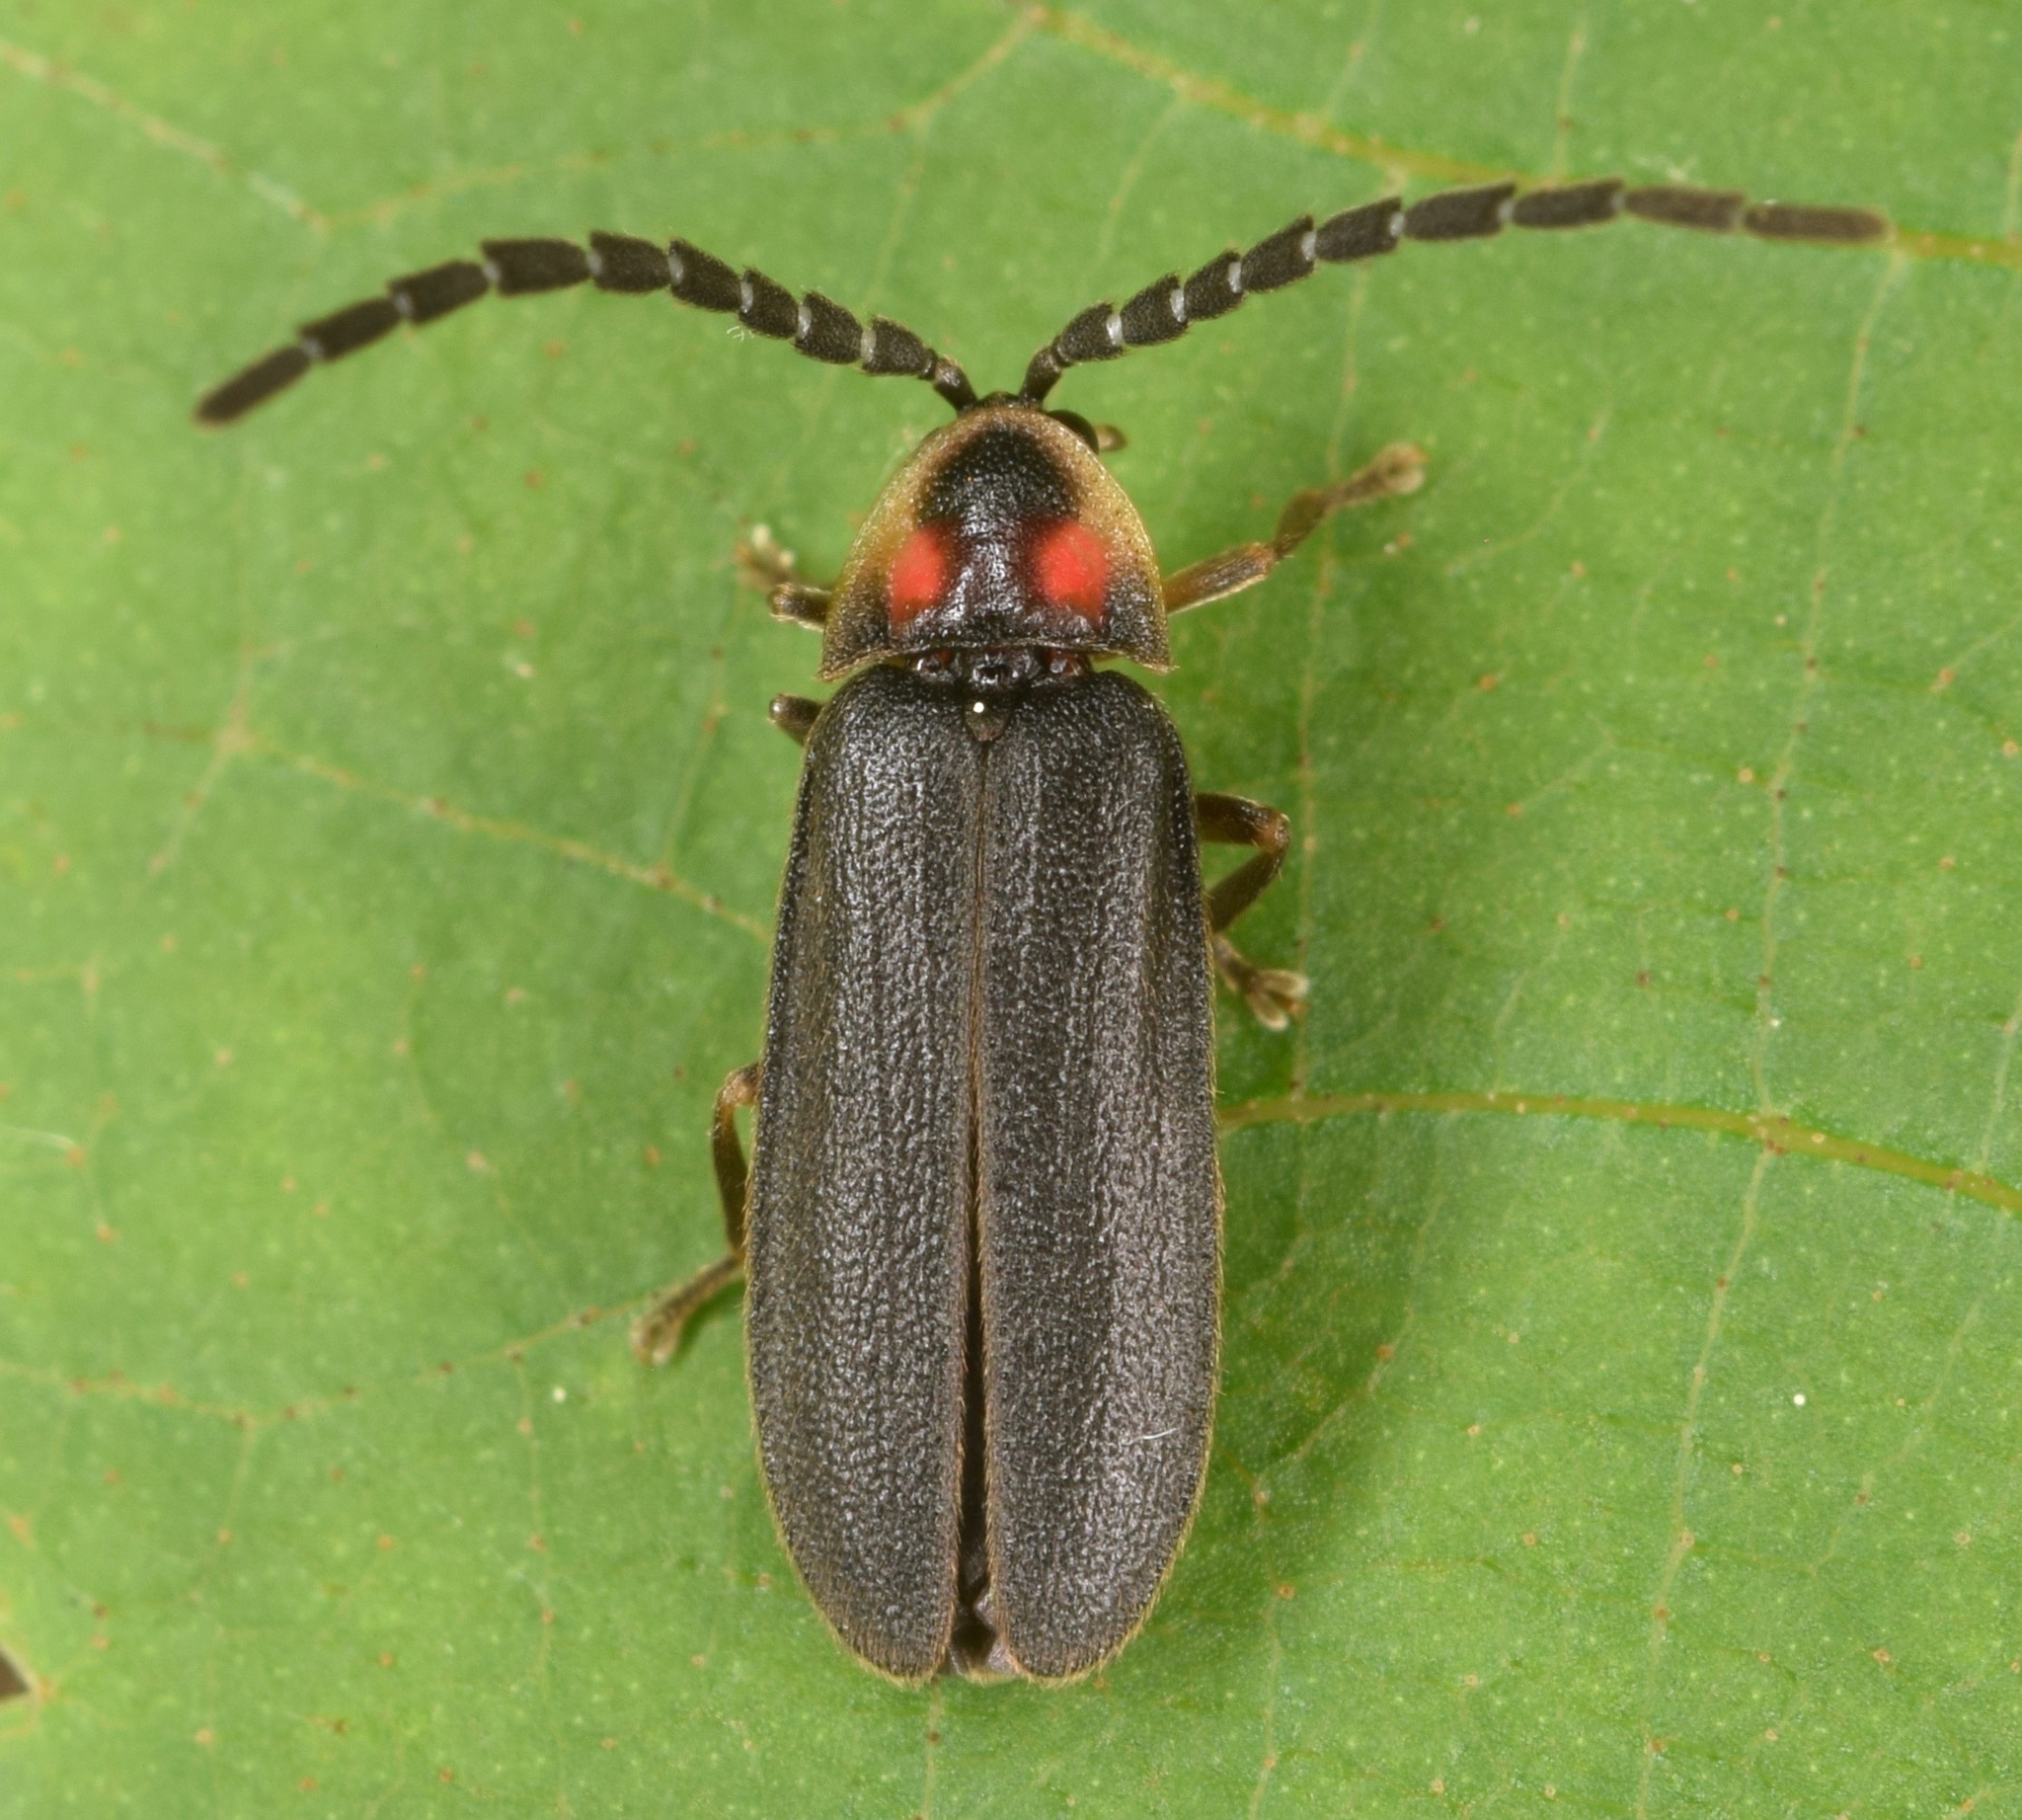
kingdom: Animalia
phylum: Arthropoda
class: Insecta
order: Coleoptera
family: Lampyridae
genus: Lucidota
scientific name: Lucidota punctata
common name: Dotted firefly
